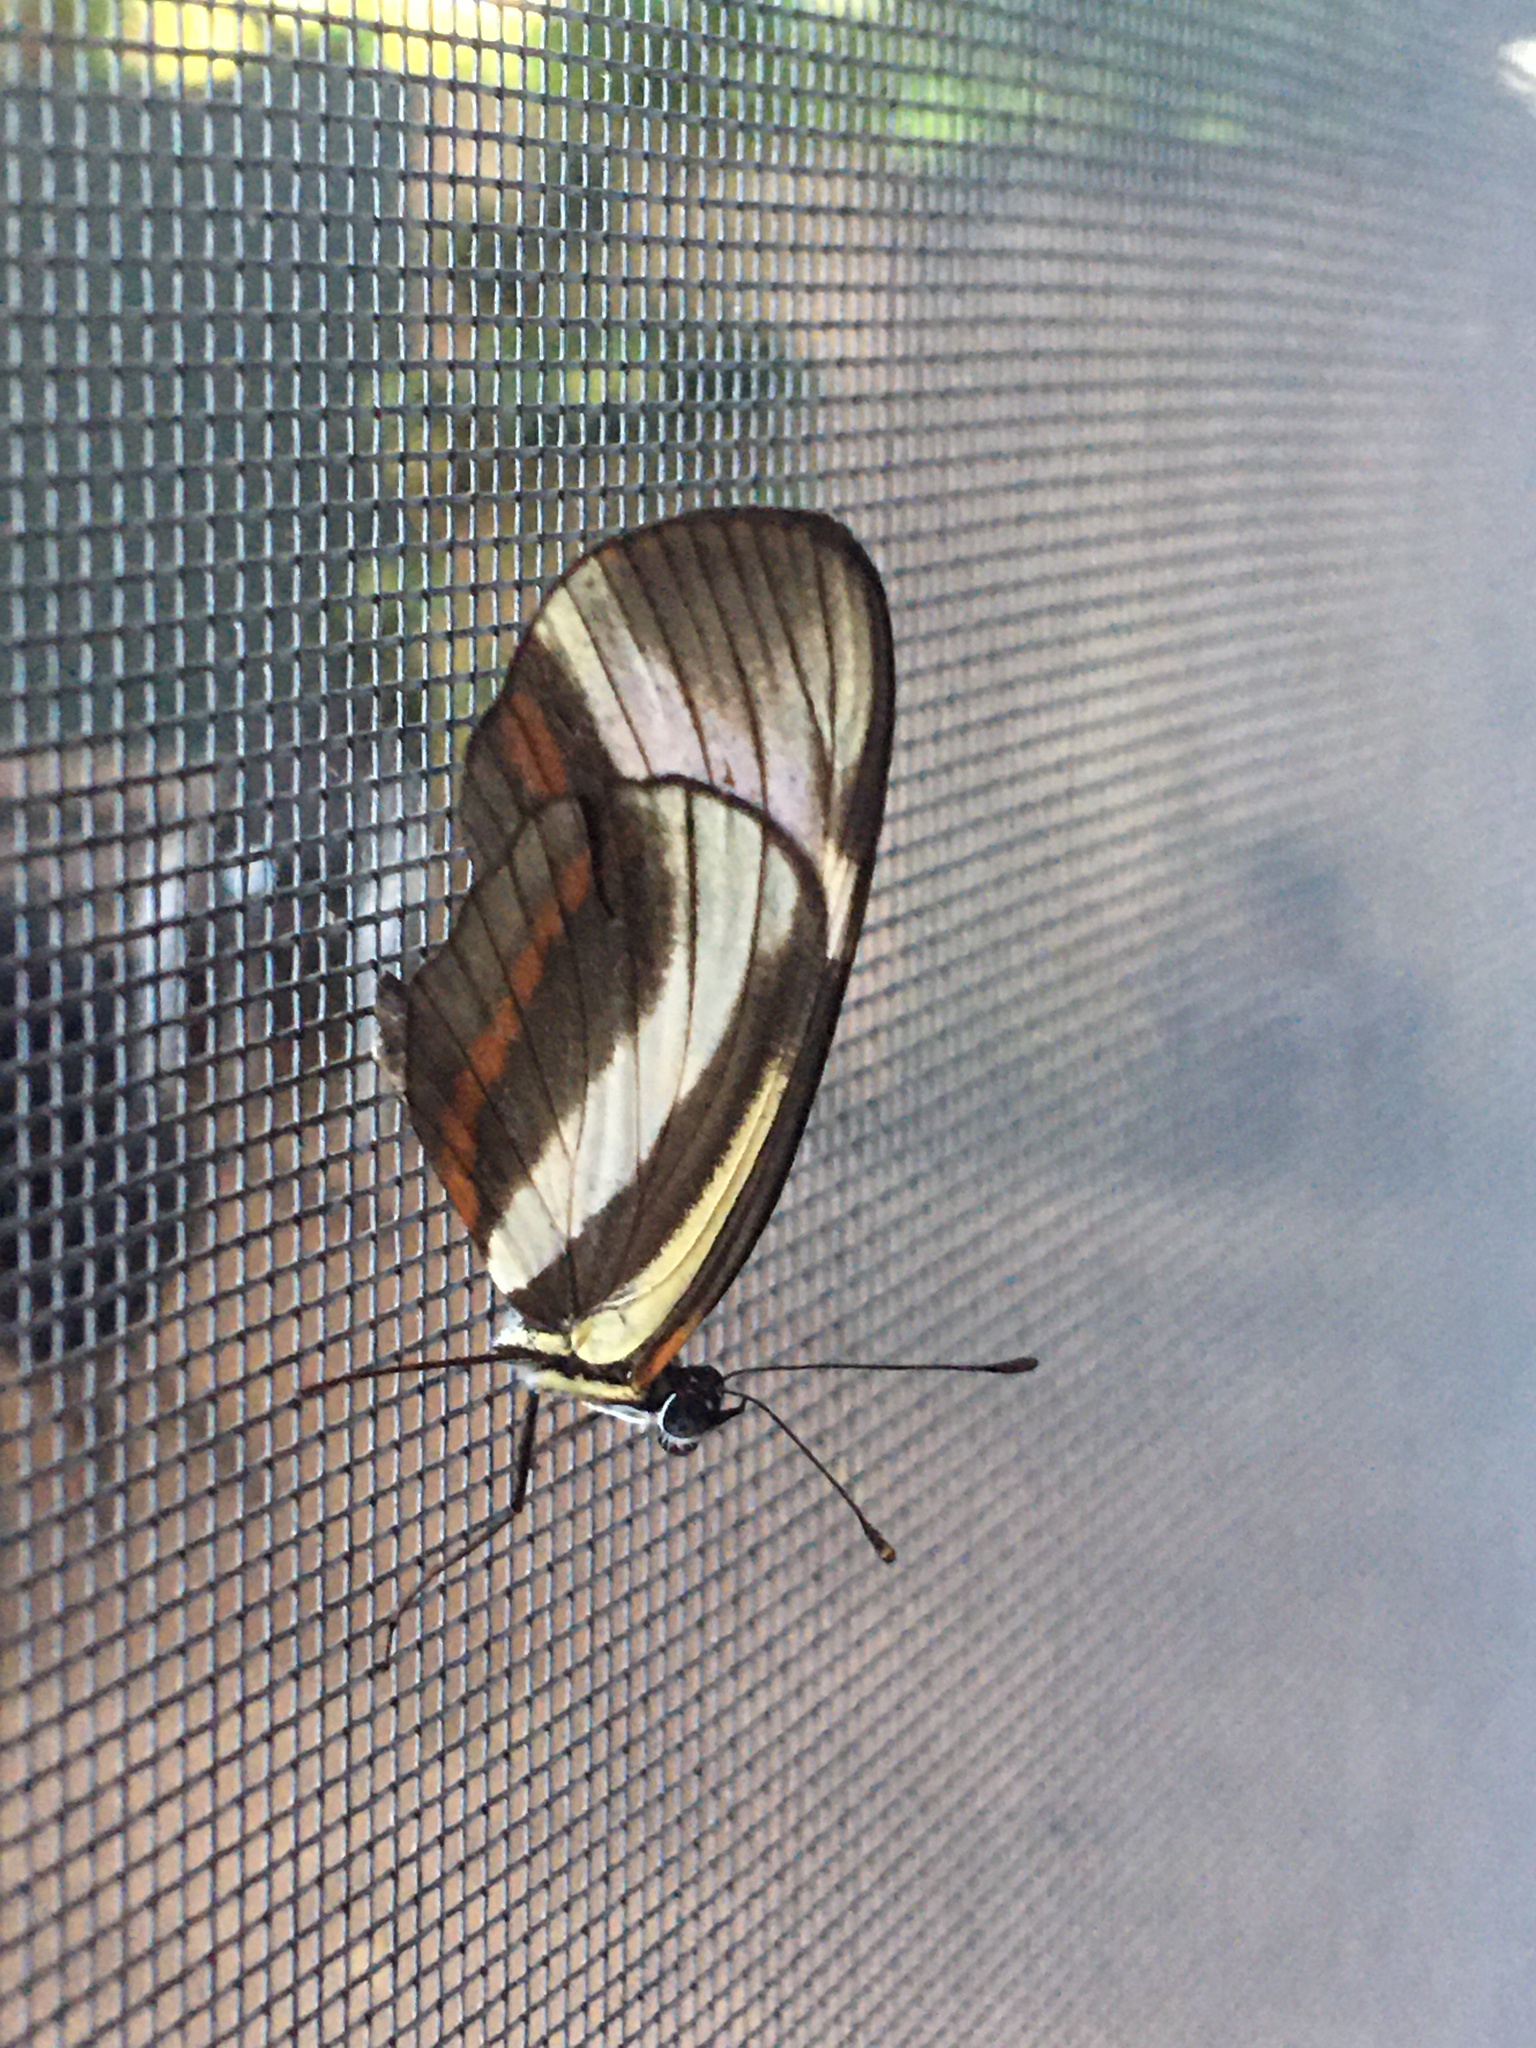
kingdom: Animalia
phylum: Arthropoda
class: Insecta
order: Lepidoptera
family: Nymphalidae
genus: Eresia
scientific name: Eresia lansdorfi
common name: Lansdorf's crescent
